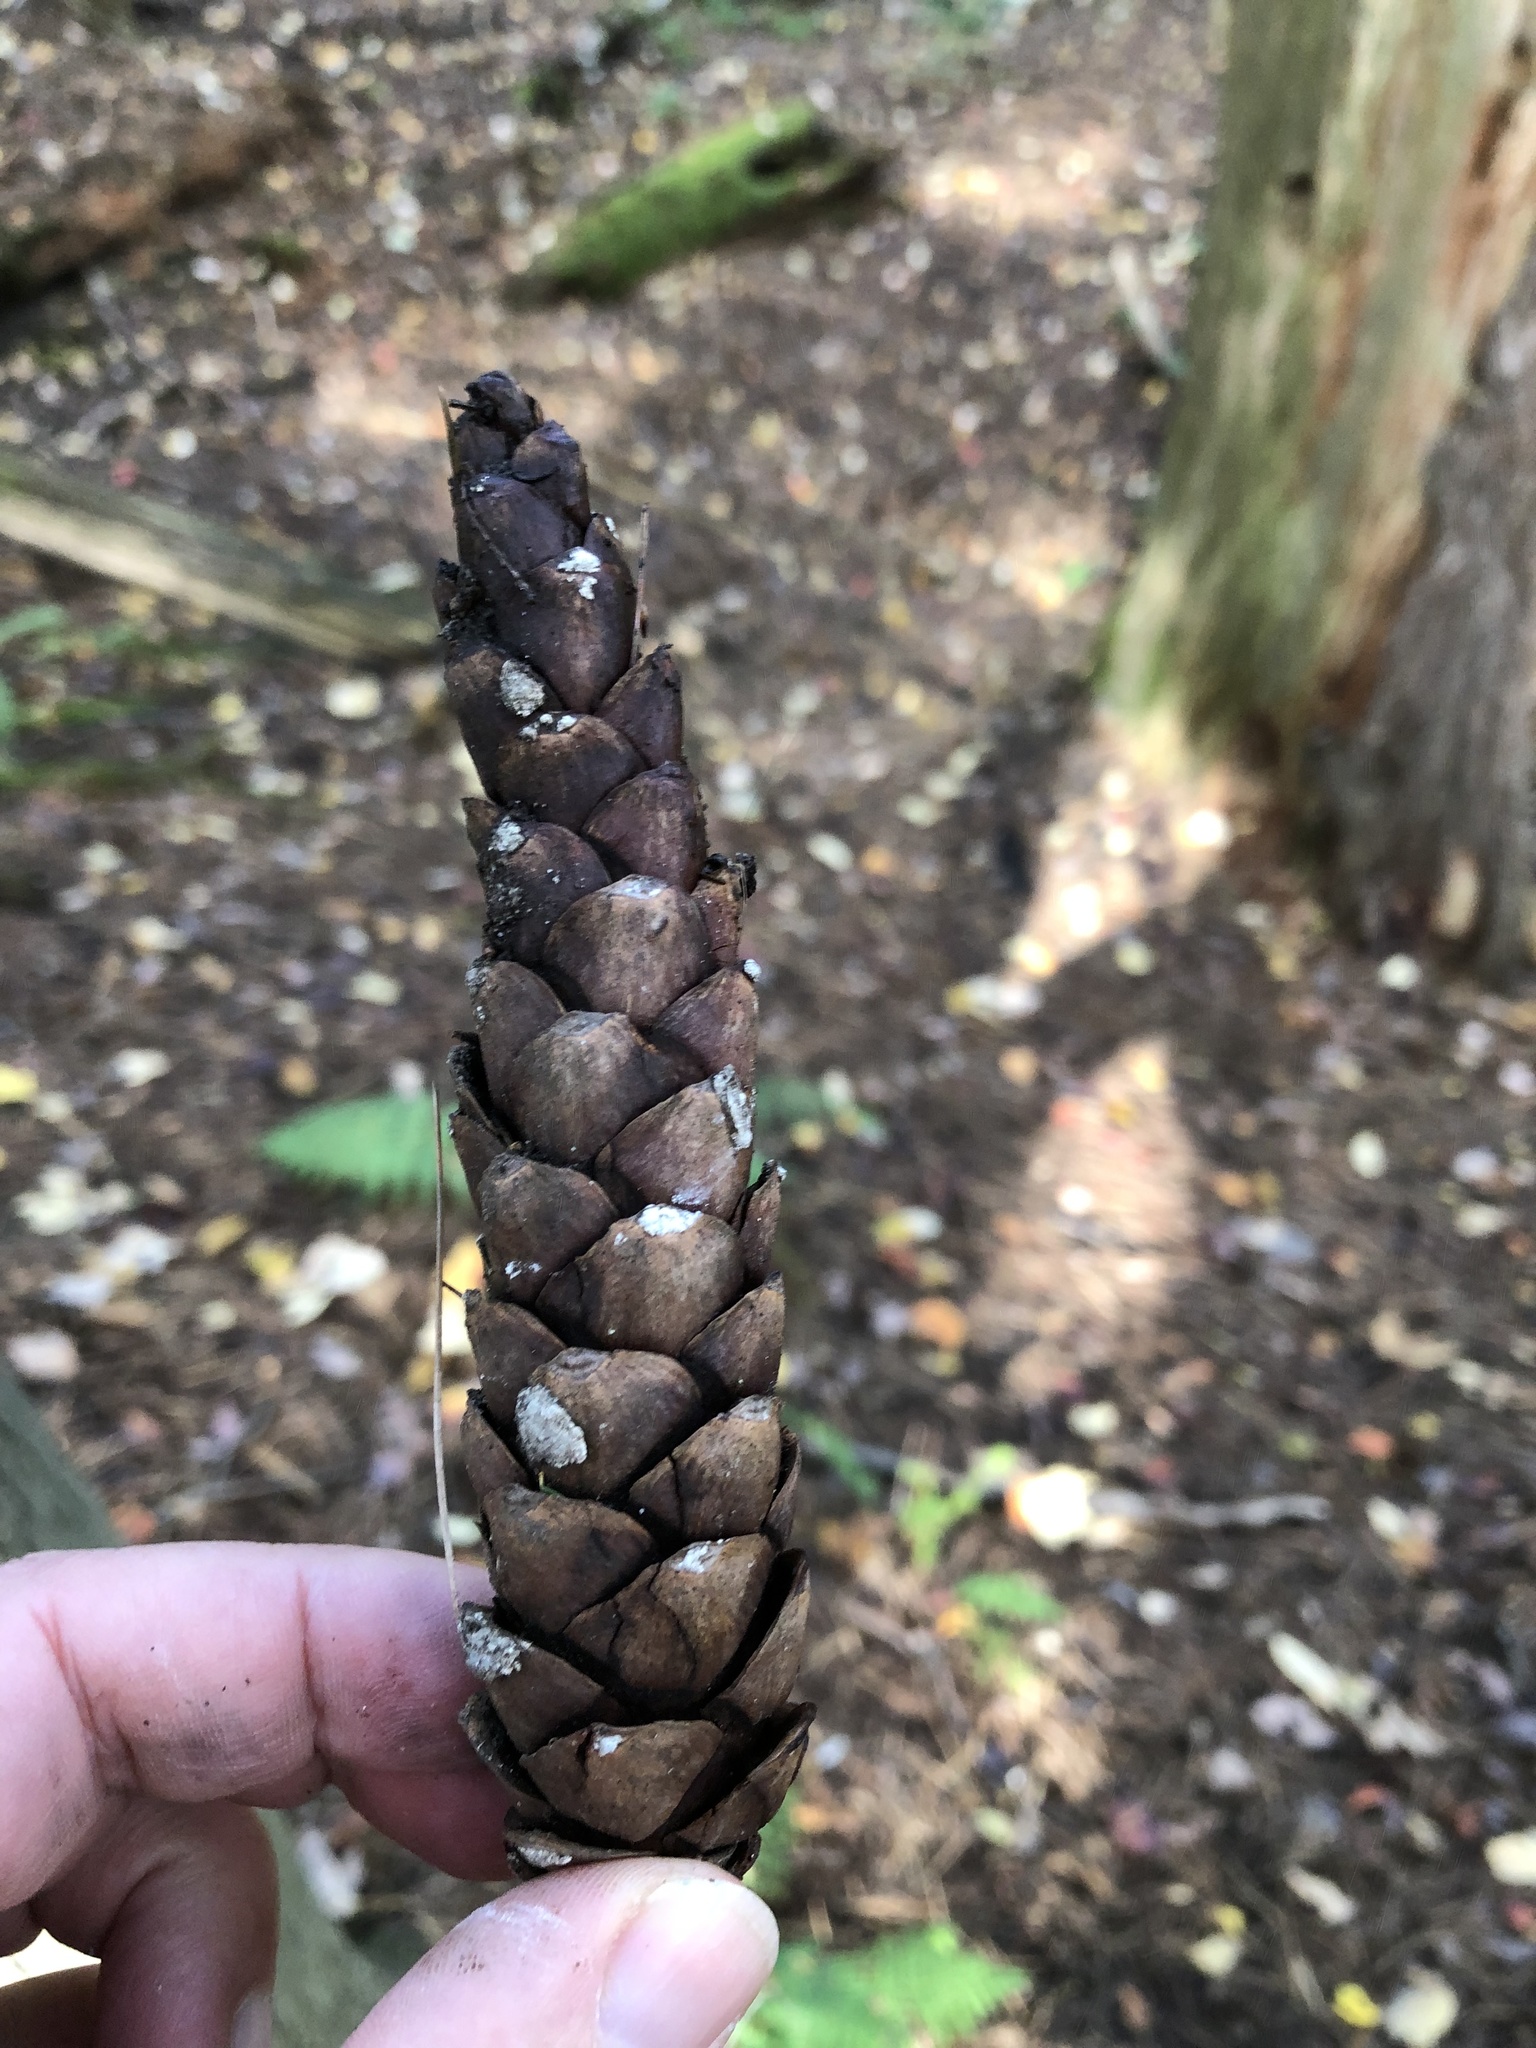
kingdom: Plantae
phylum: Tracheophyta
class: Pinopsida
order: Pinales
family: Pinaceae
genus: Pinus
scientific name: Pinus strobus
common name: Weymouth pine
